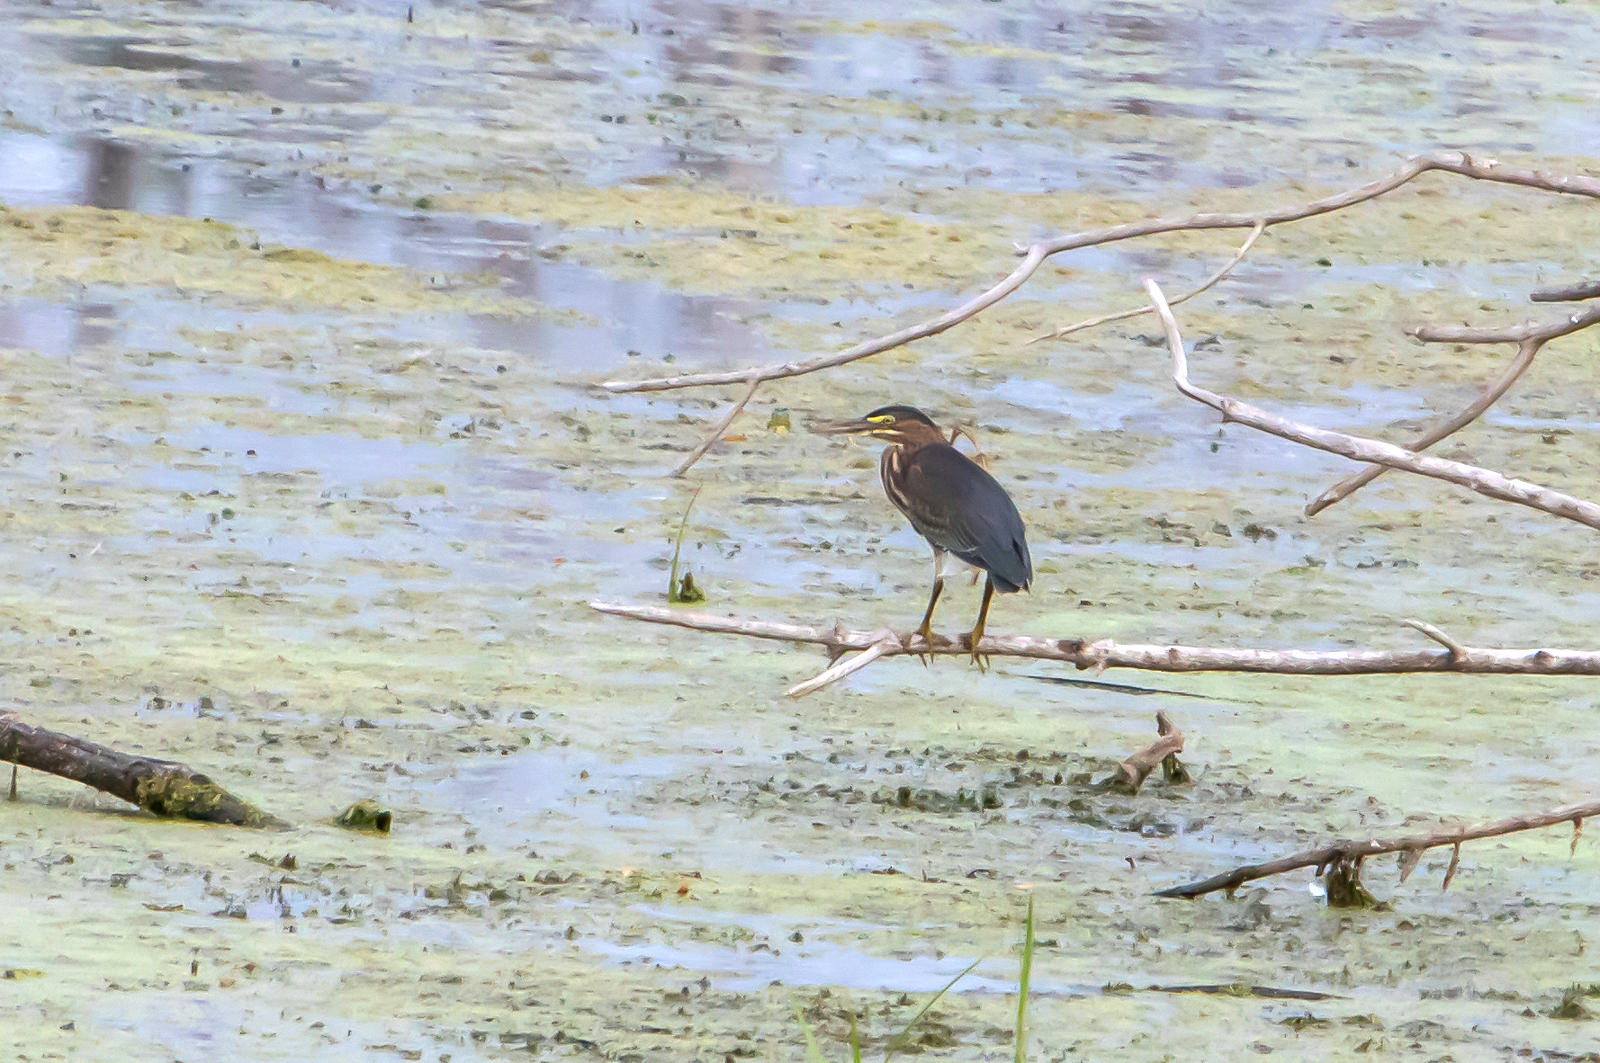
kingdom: Animalia
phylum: Chordata
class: Aves
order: Pelecaniformes
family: Ardeidae
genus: Butorides
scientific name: Butorides virescens
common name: Green heron
